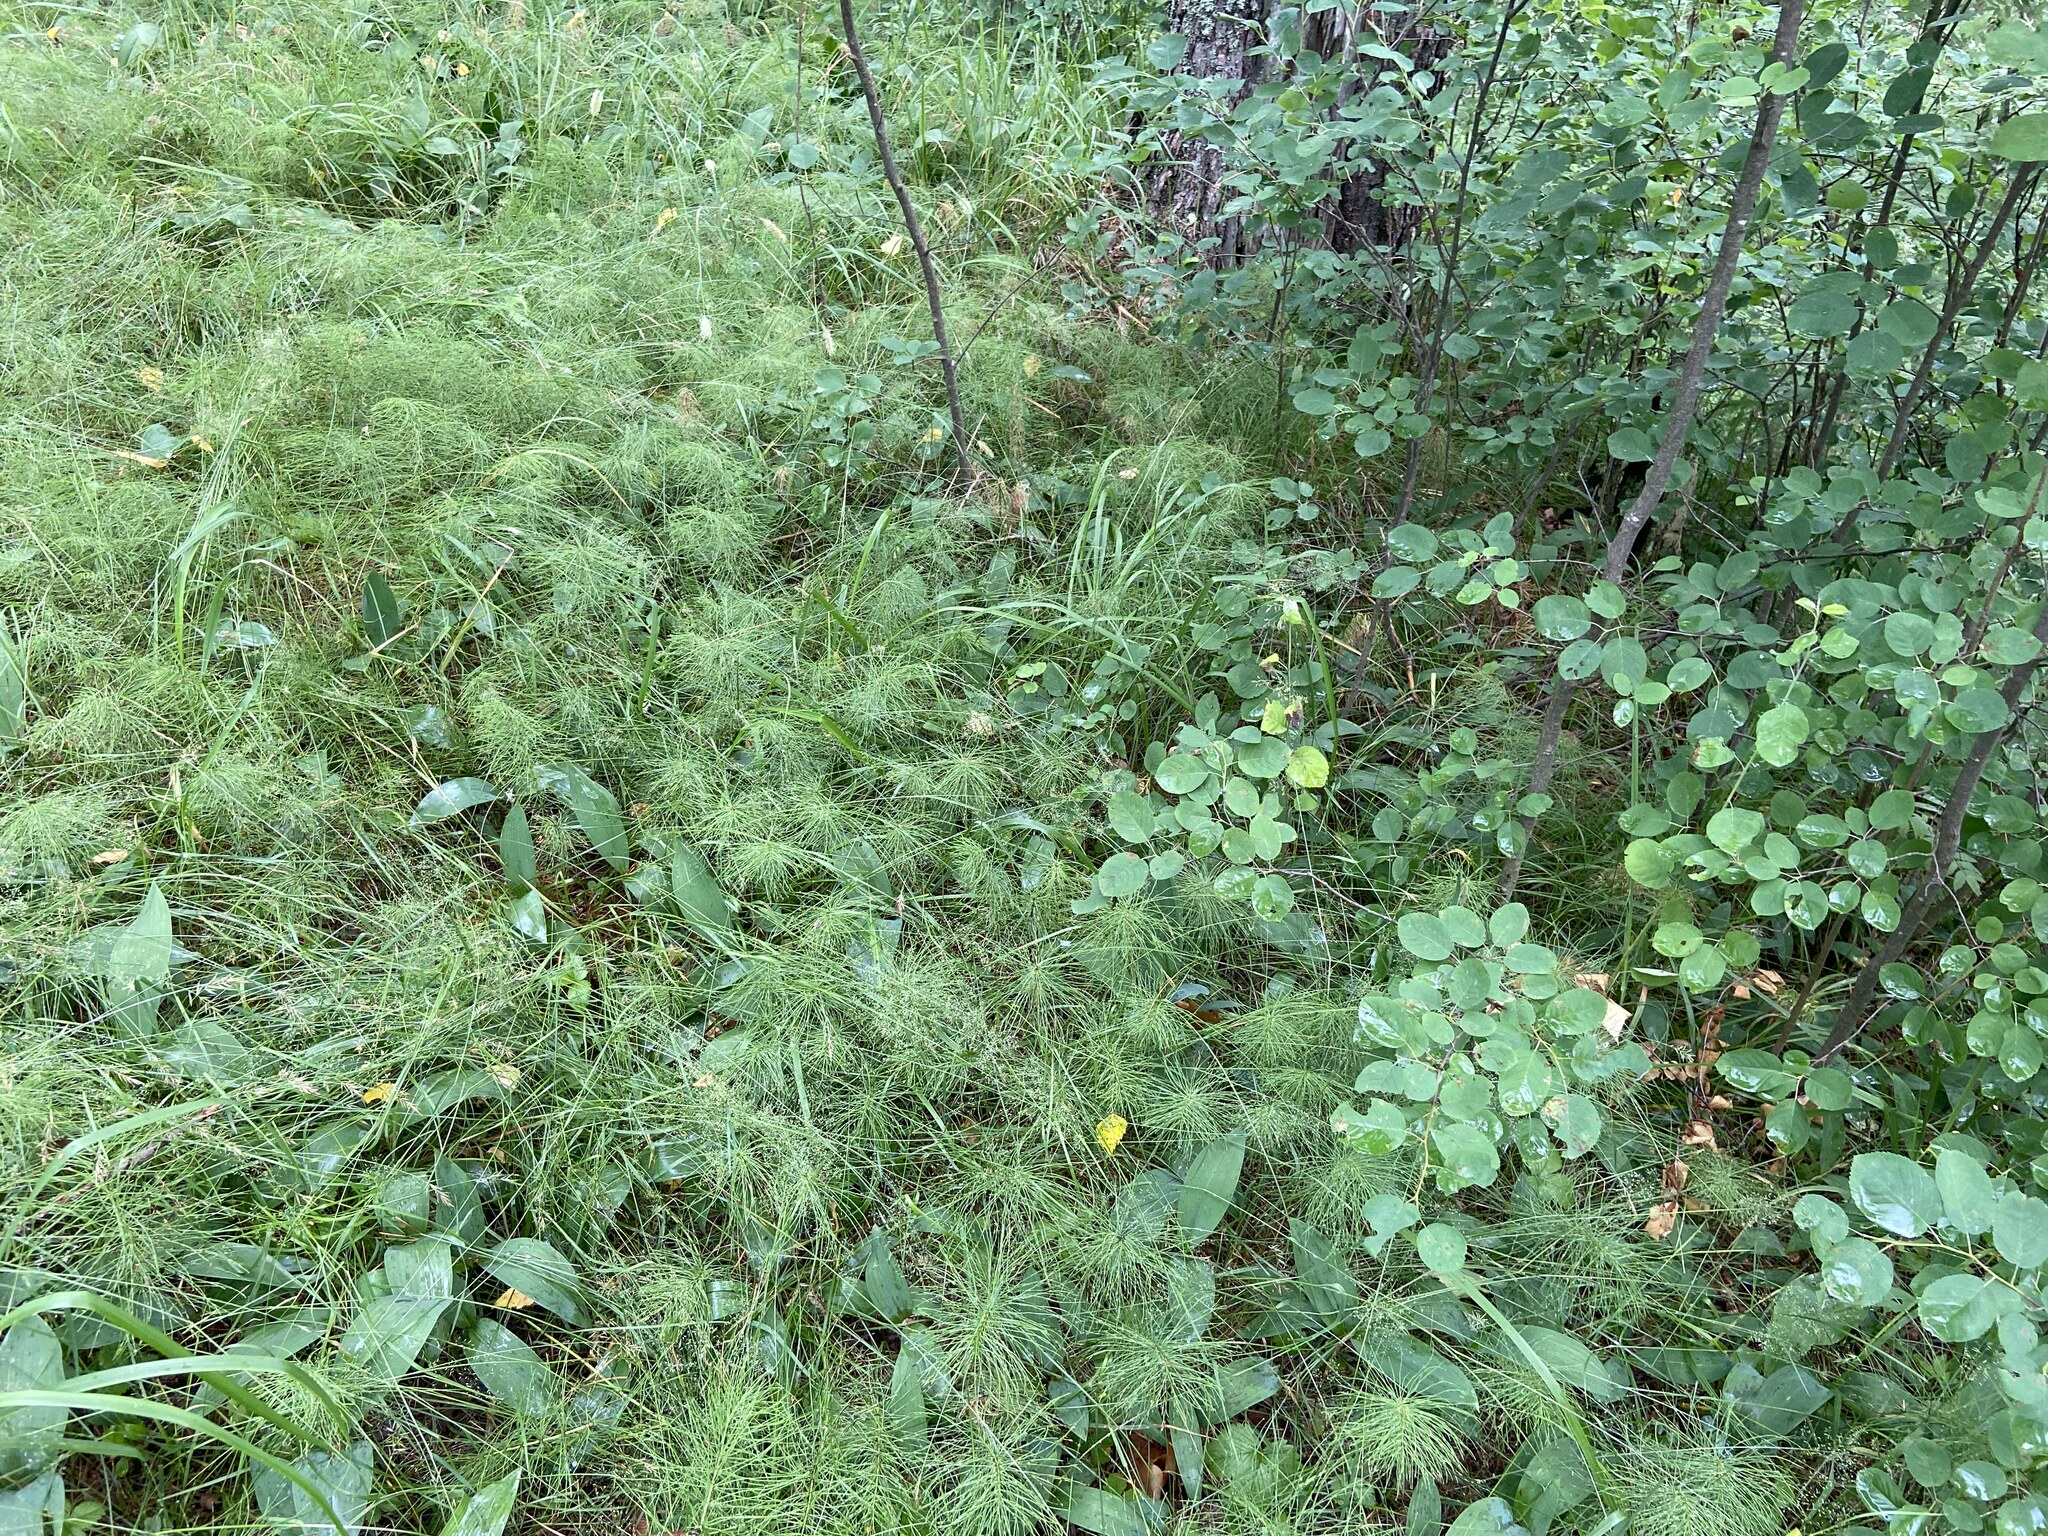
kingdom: Plantae
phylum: Tracheophyta
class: Polypodiopsida
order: Equisetales
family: Equisetaceae
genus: Equisetum
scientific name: Equisetum pratense
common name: Meadow horsetail
